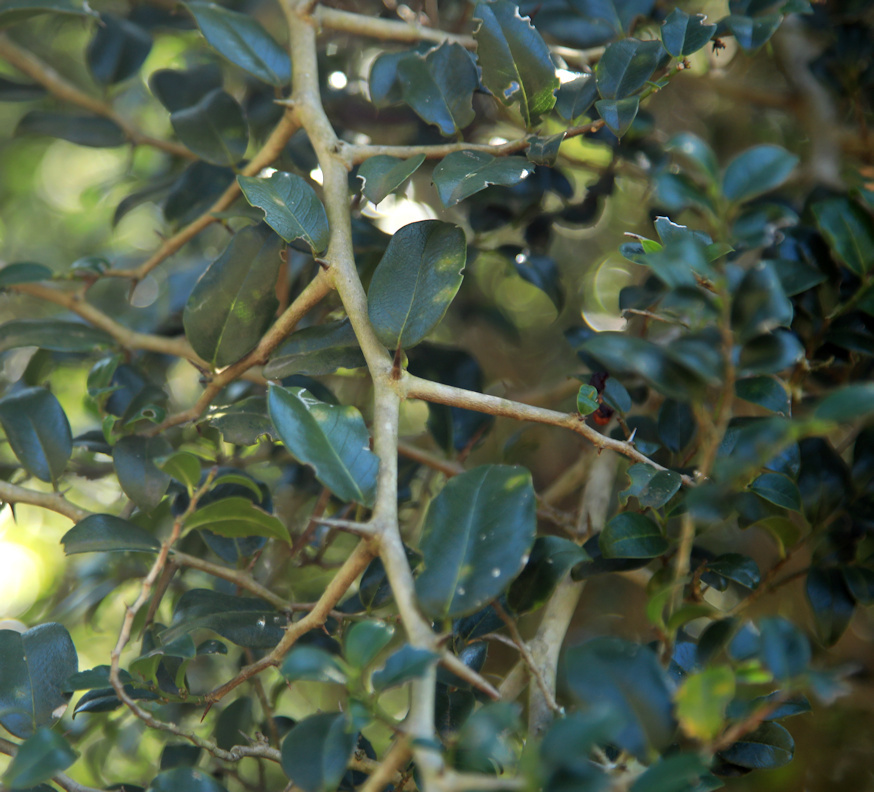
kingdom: Plantae
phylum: Tracheophyta
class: Magnoliopsida
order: Rosales
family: Cannabaceae
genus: Chaetachme
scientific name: Chaetachme aristata
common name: Thorny elm
